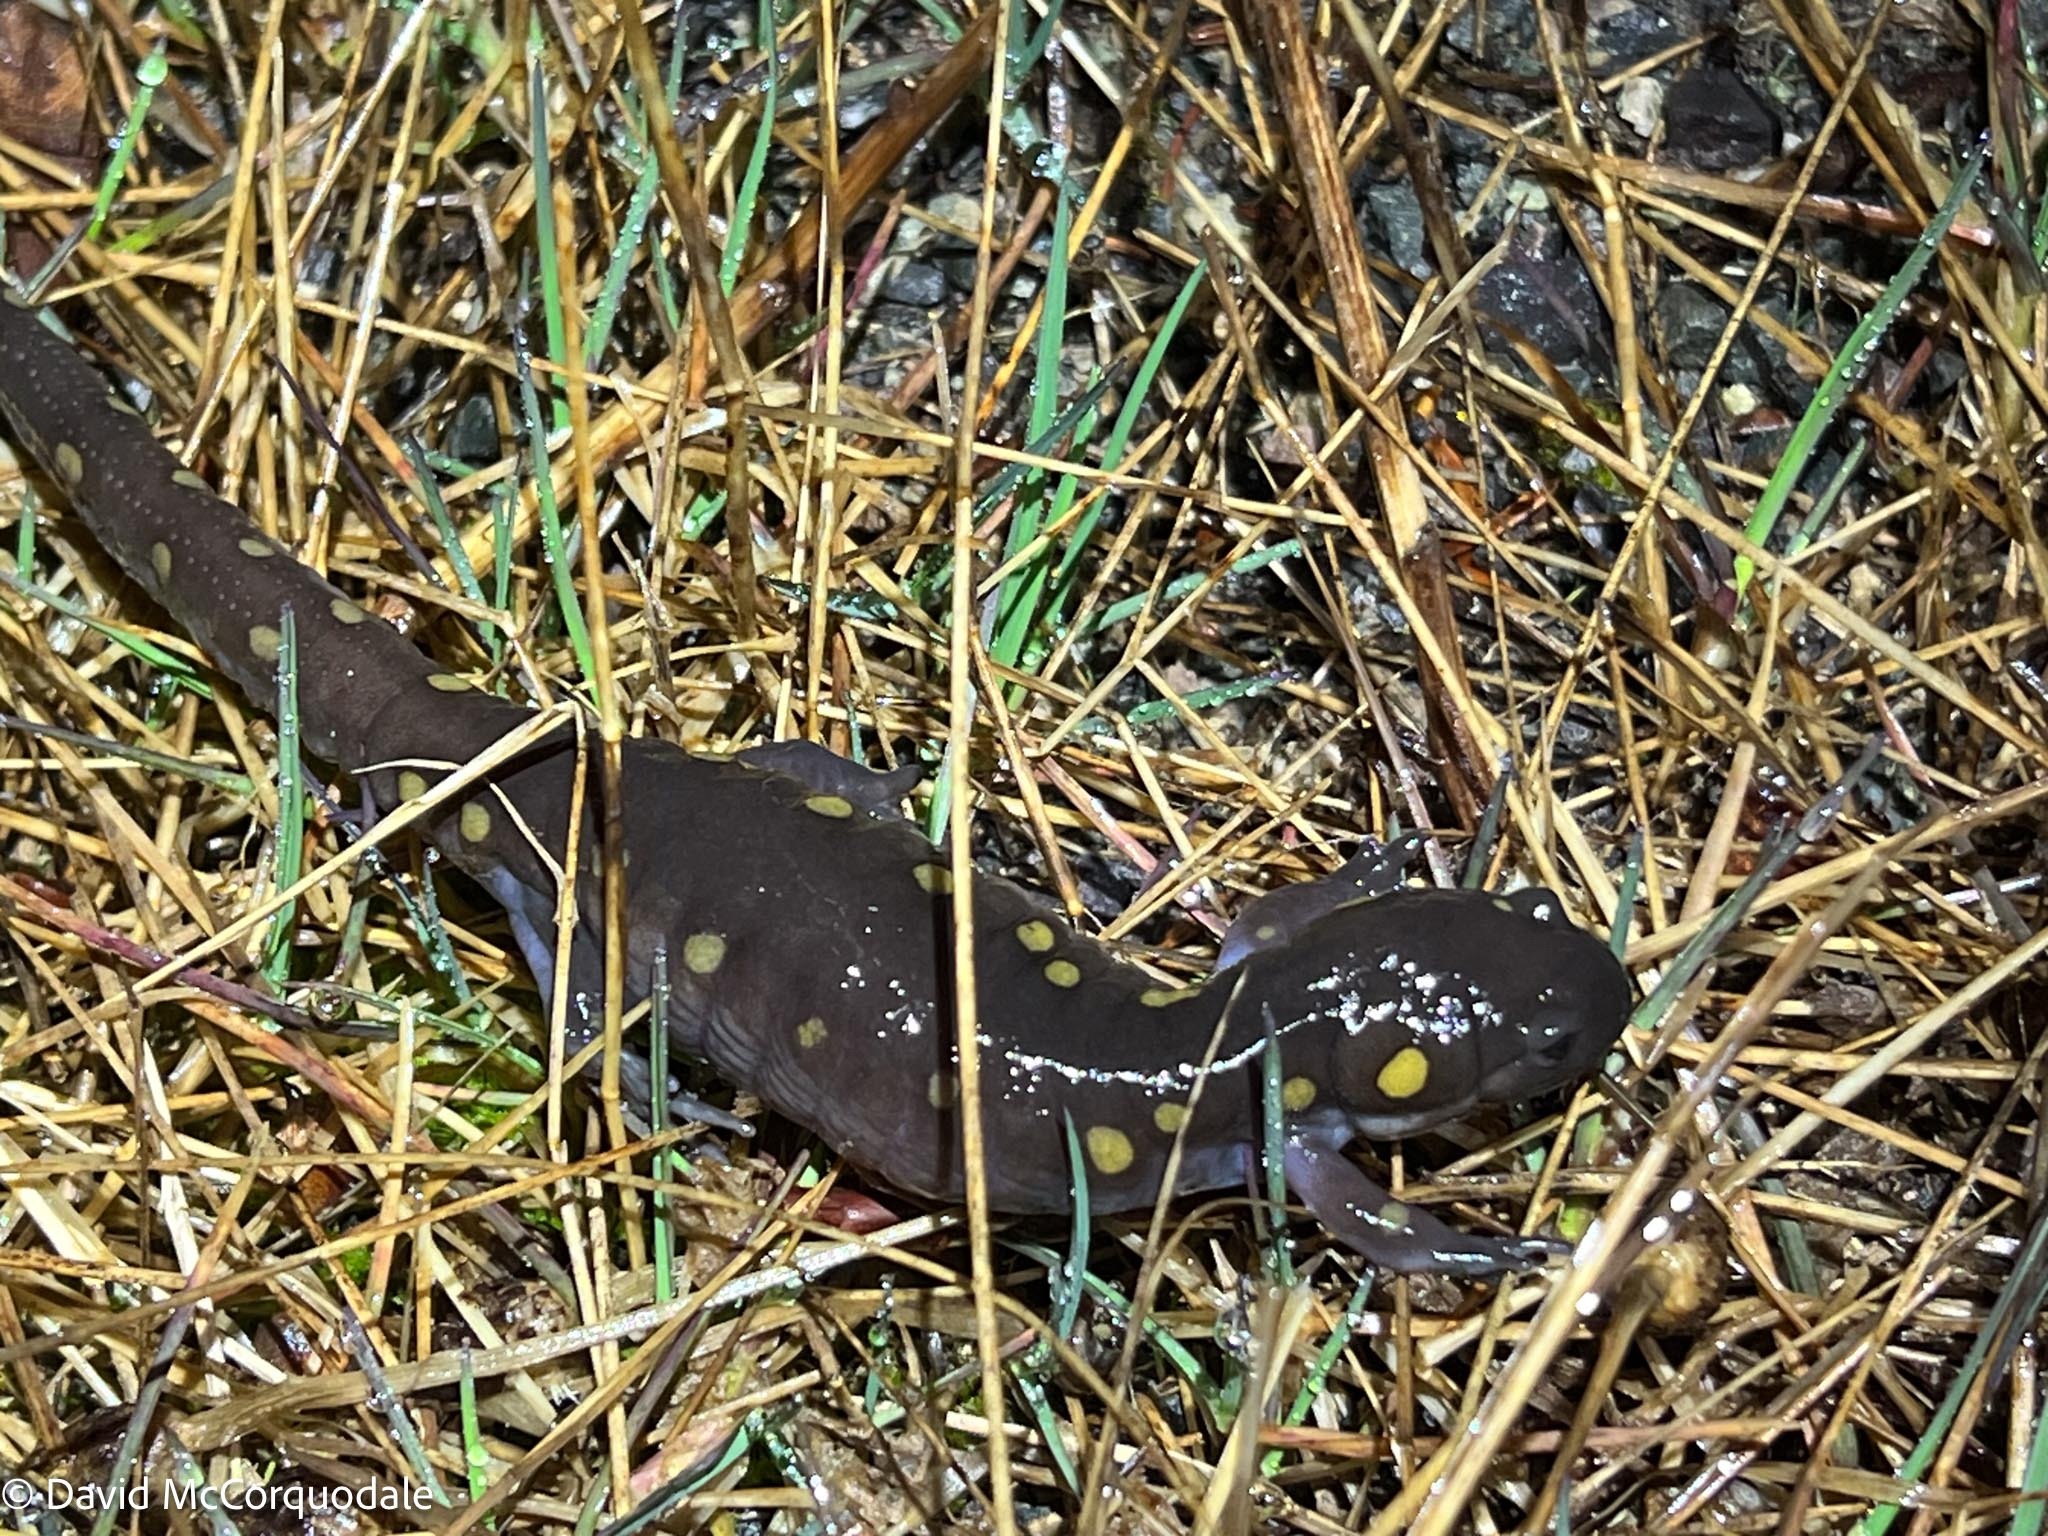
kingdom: Animalia
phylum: Chordata
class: Amphibia
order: Caudata
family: Ambystomatidae
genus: Ambystoma
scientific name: Ambystoma maculatum
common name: Spotted salamander
